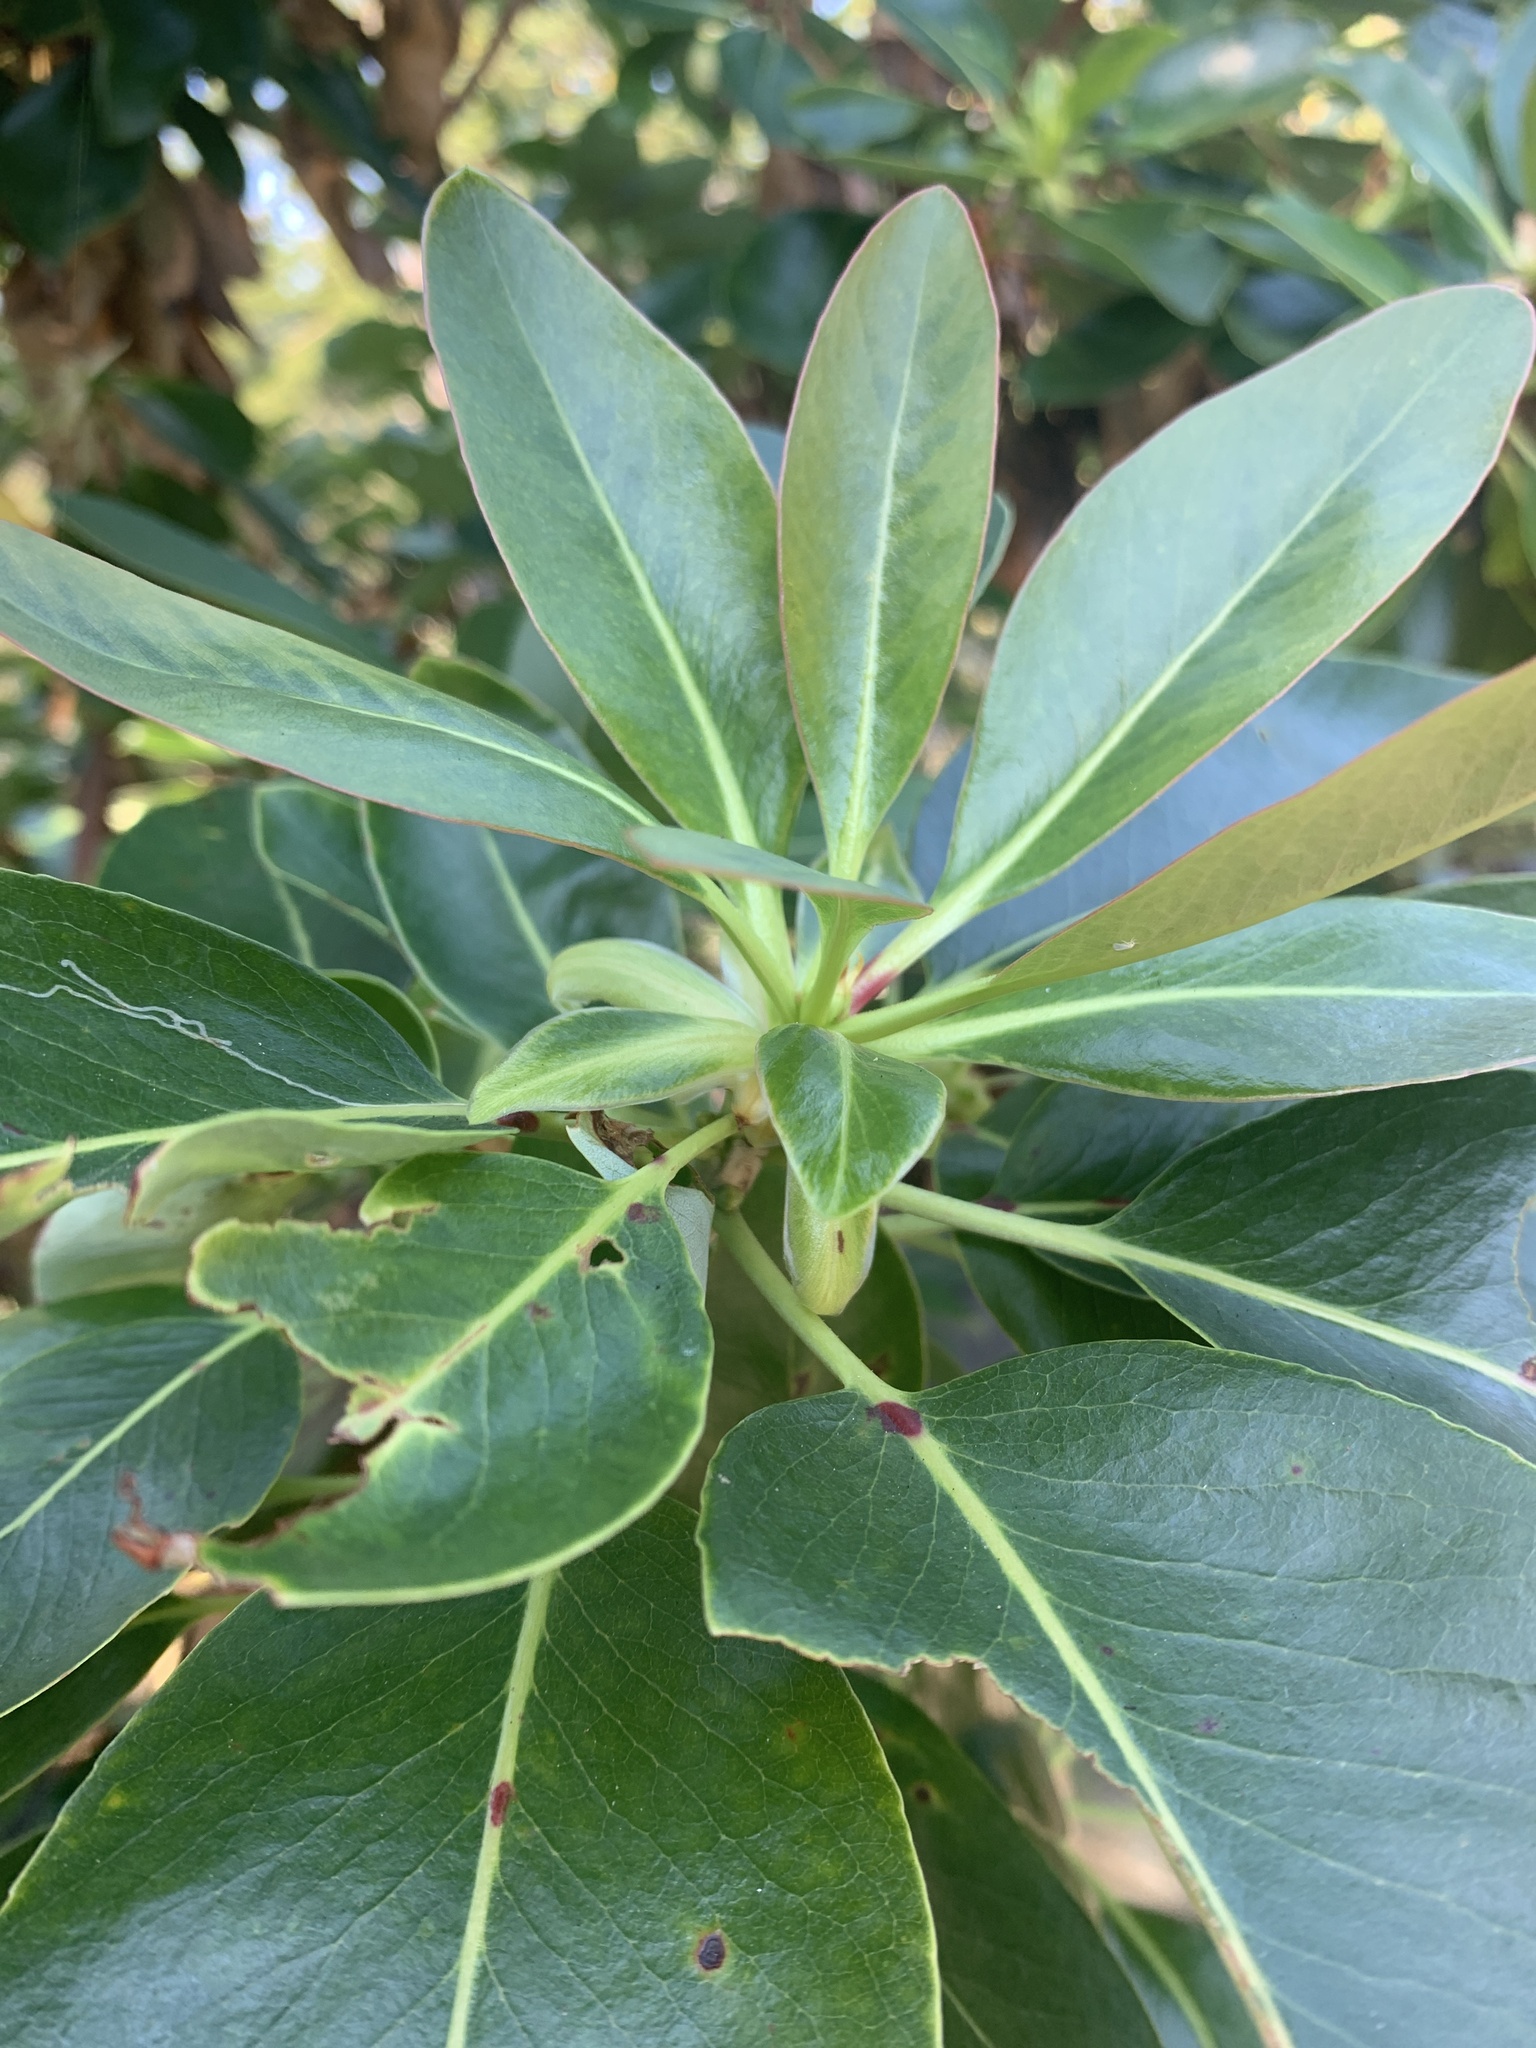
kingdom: Plantae
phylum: Tracheophyta
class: Magnoliopsida
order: Ericales
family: Ericaceae
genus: Arbutus
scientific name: Arbutus menziesii
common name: Pacific madrone
